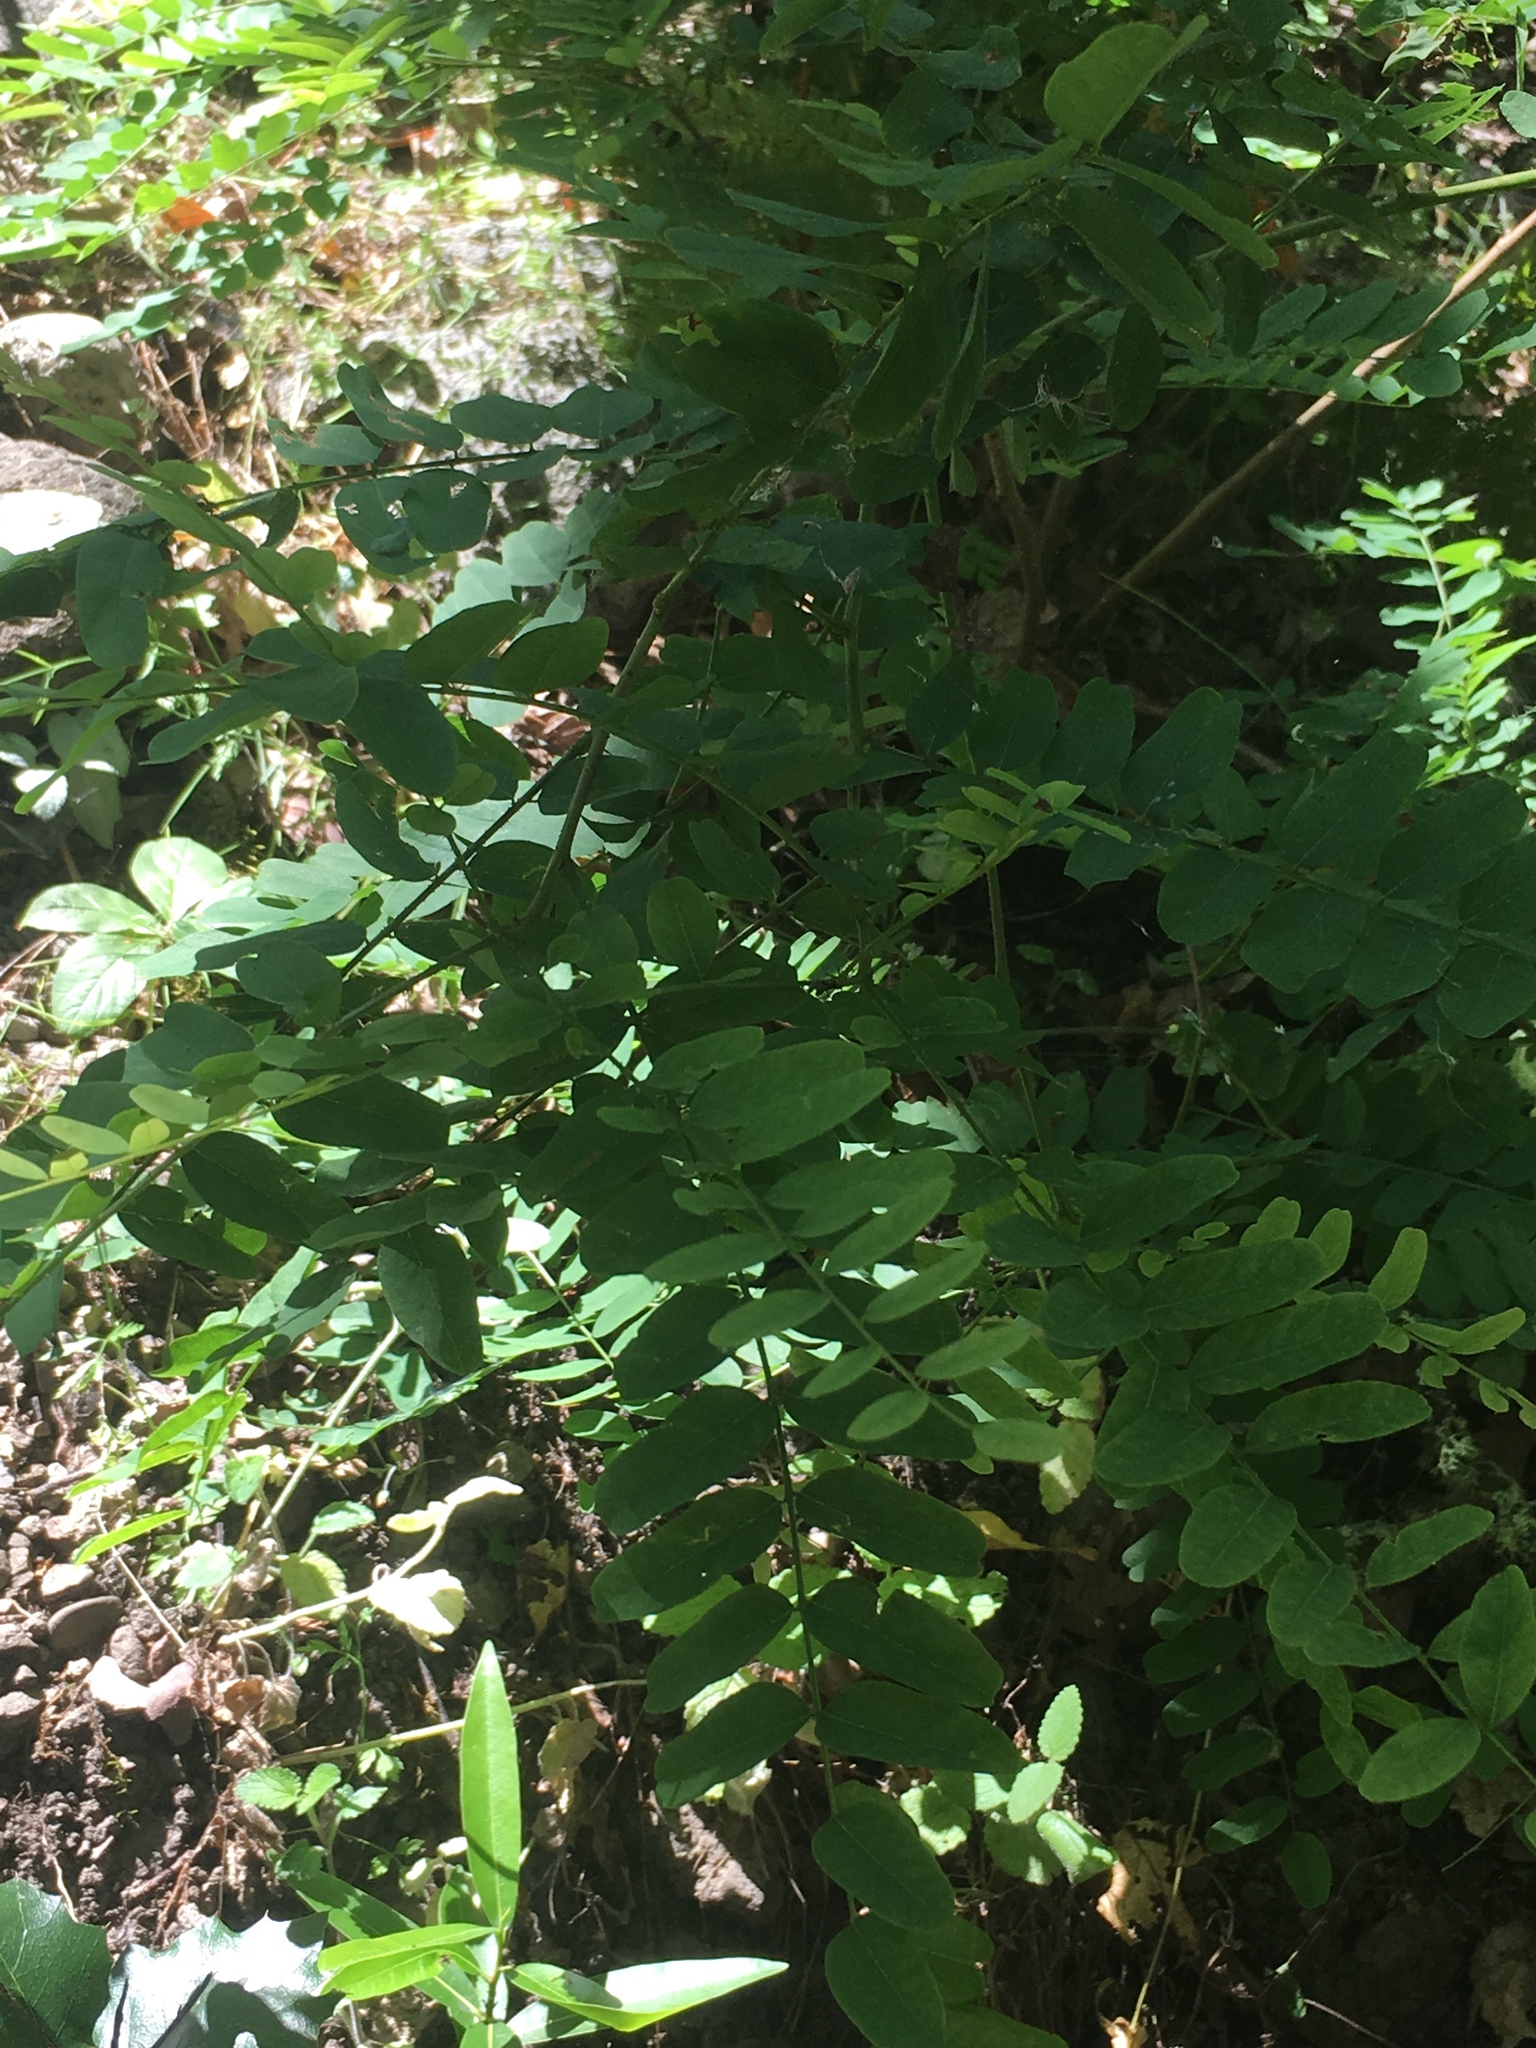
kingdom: Plantae
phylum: Tracheophyta
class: Magnoliopsida
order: Fabales
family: Fabaceae
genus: Amorpha
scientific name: Amorpha californica
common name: California indigobush
